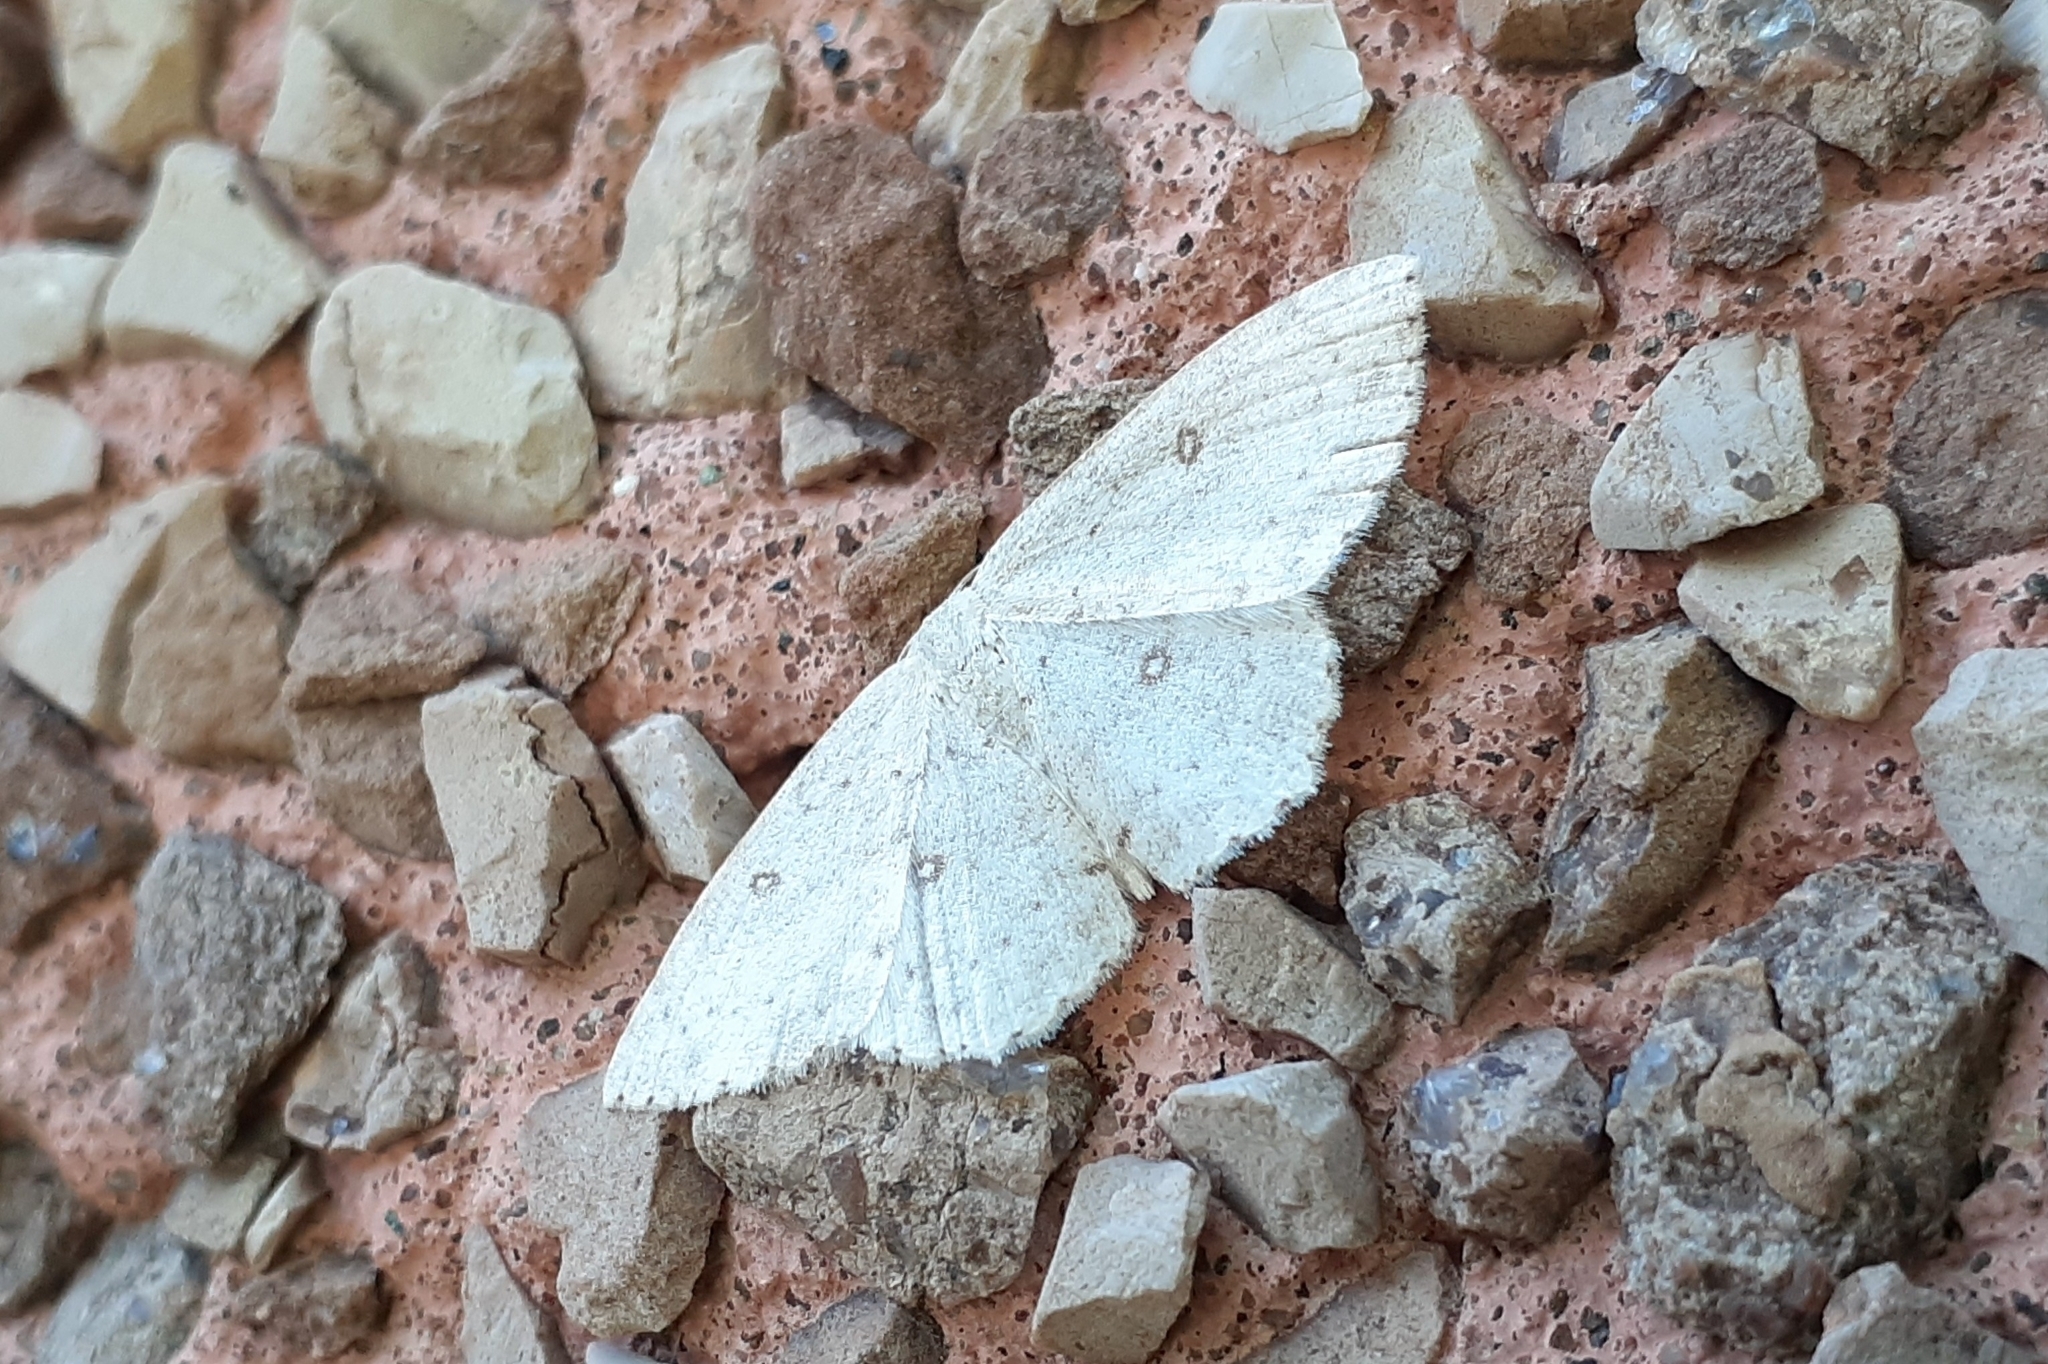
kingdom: Animalia
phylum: Arthropoda
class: Insecta
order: Lepidoptera
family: Geometridae
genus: Cyclophora
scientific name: Cyclophora pendulinaria
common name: Sweet fern geometer
